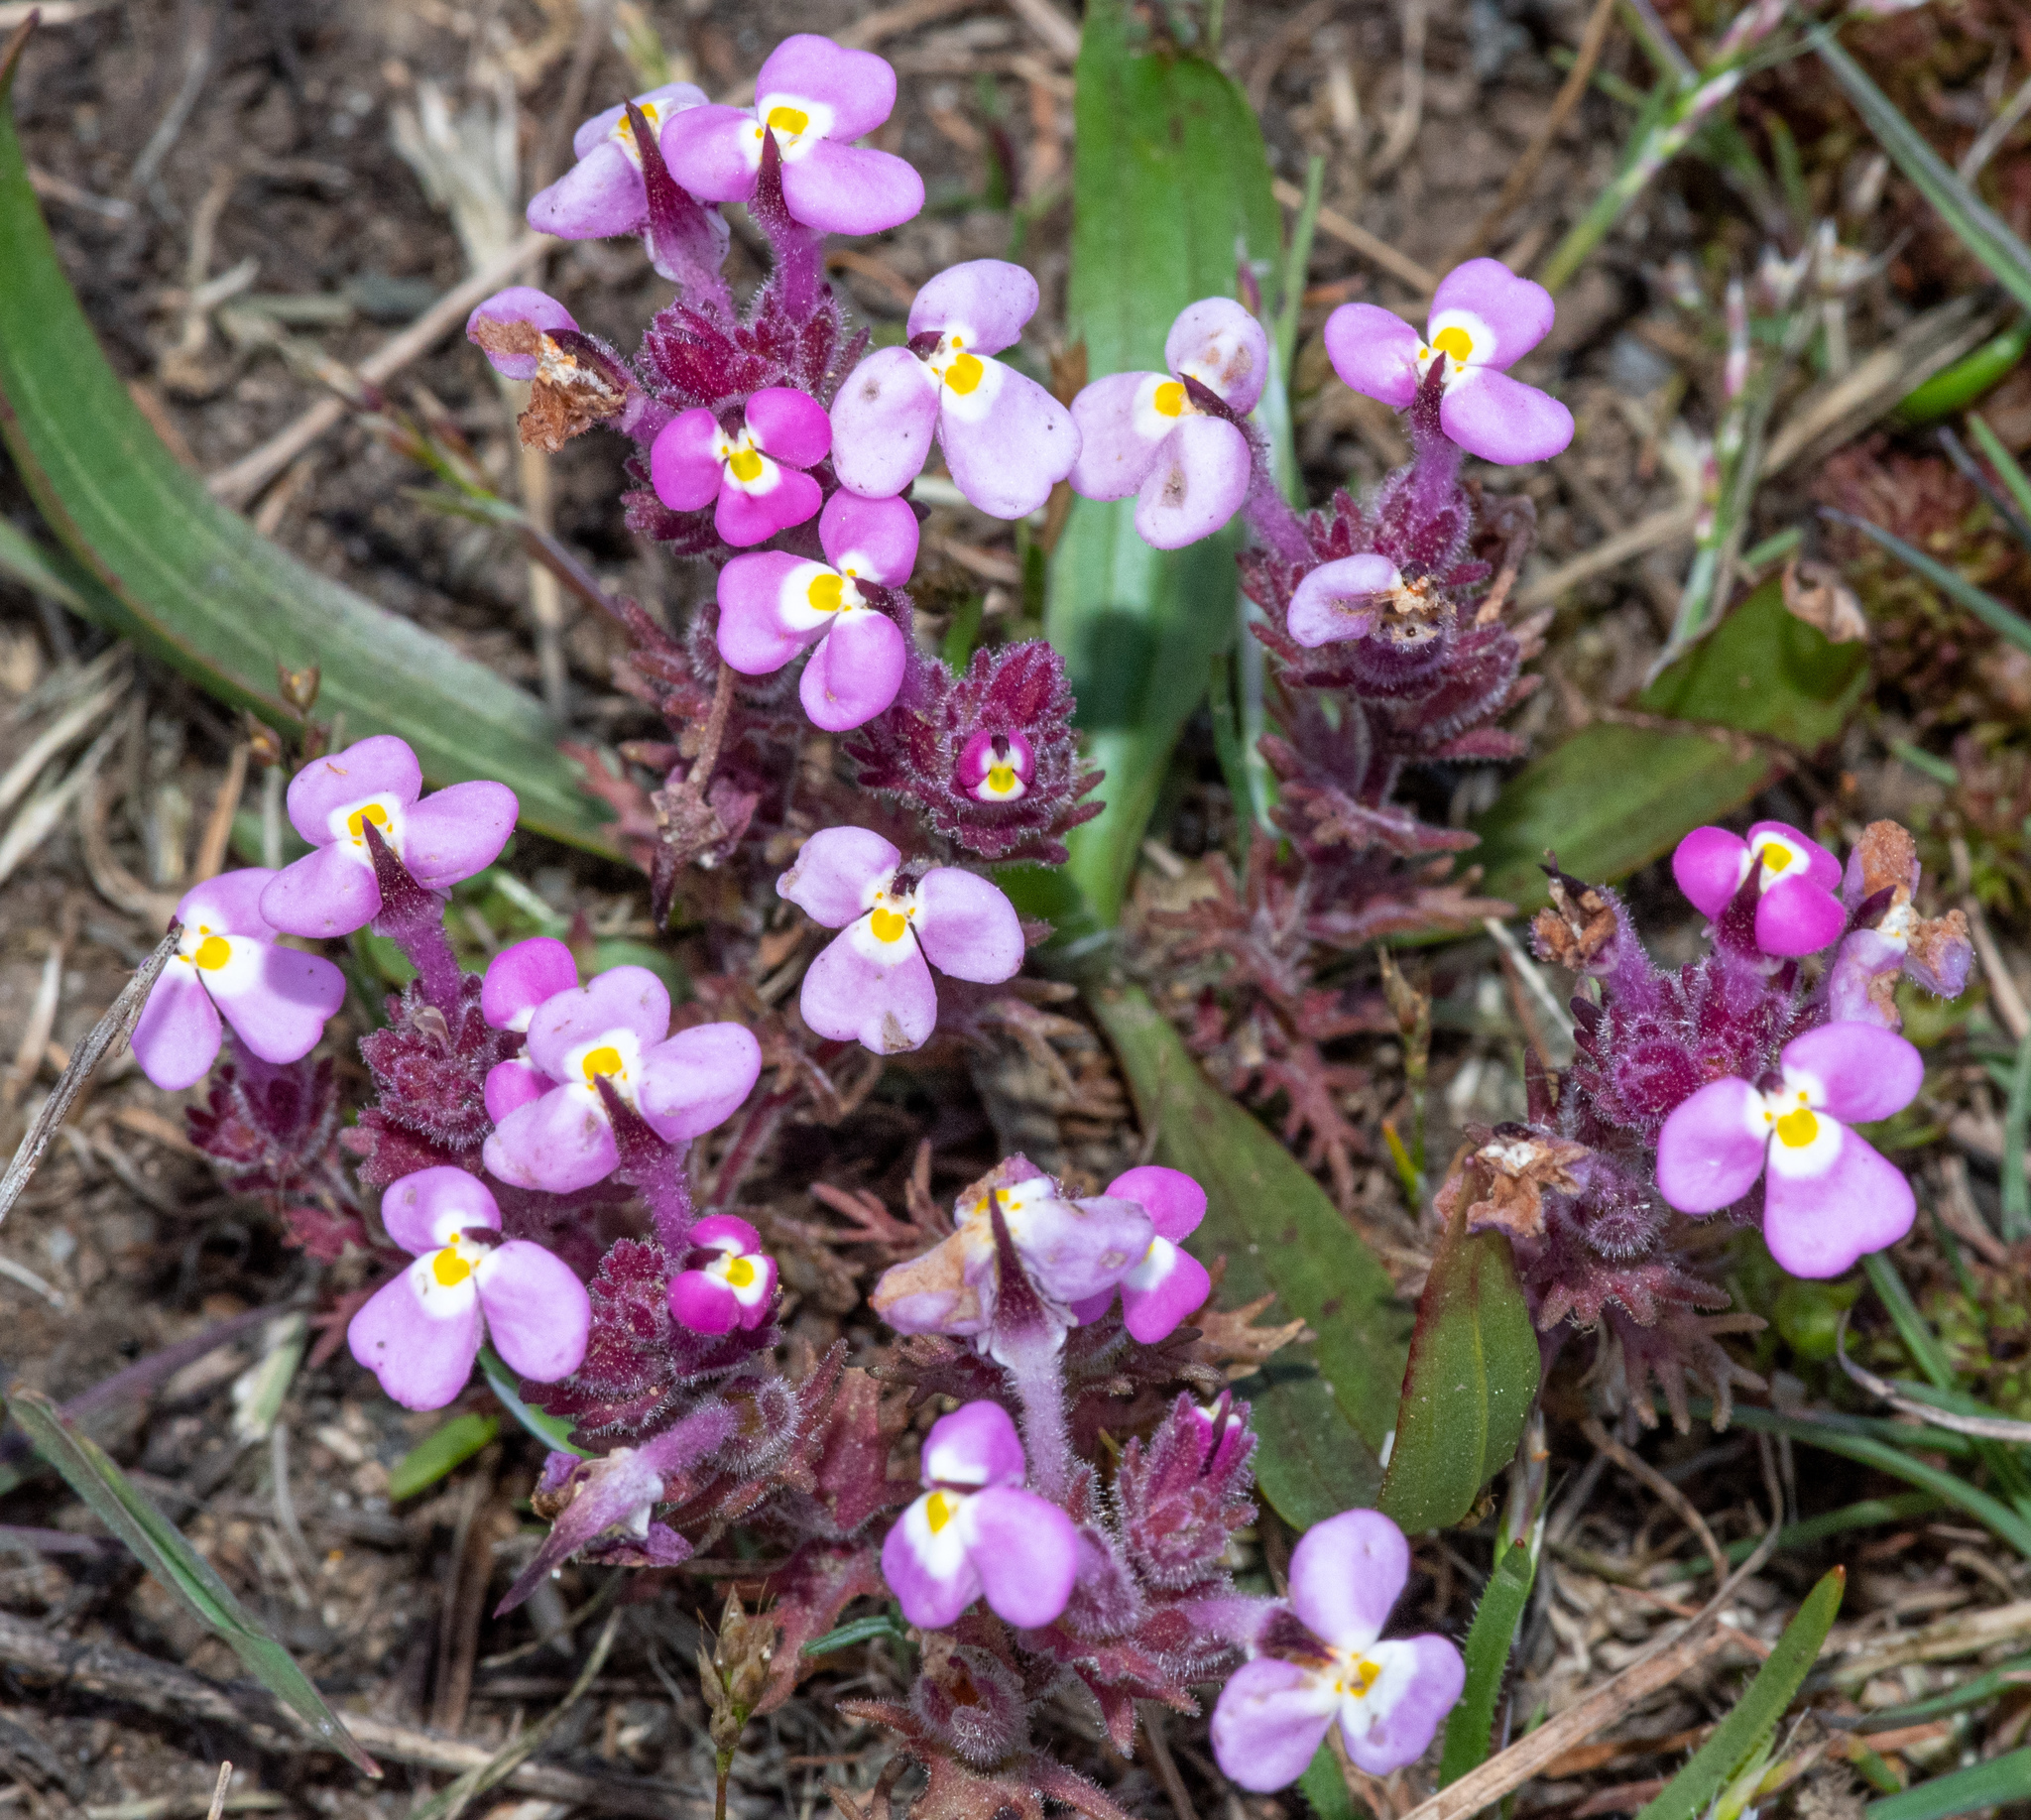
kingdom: Plantae
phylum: Tracheophyta
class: Magnoliopsida
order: Lamiales
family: Orobanchaceae
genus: Triphysaria
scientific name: Triphysaria eriantha
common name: Johnny-tuck
